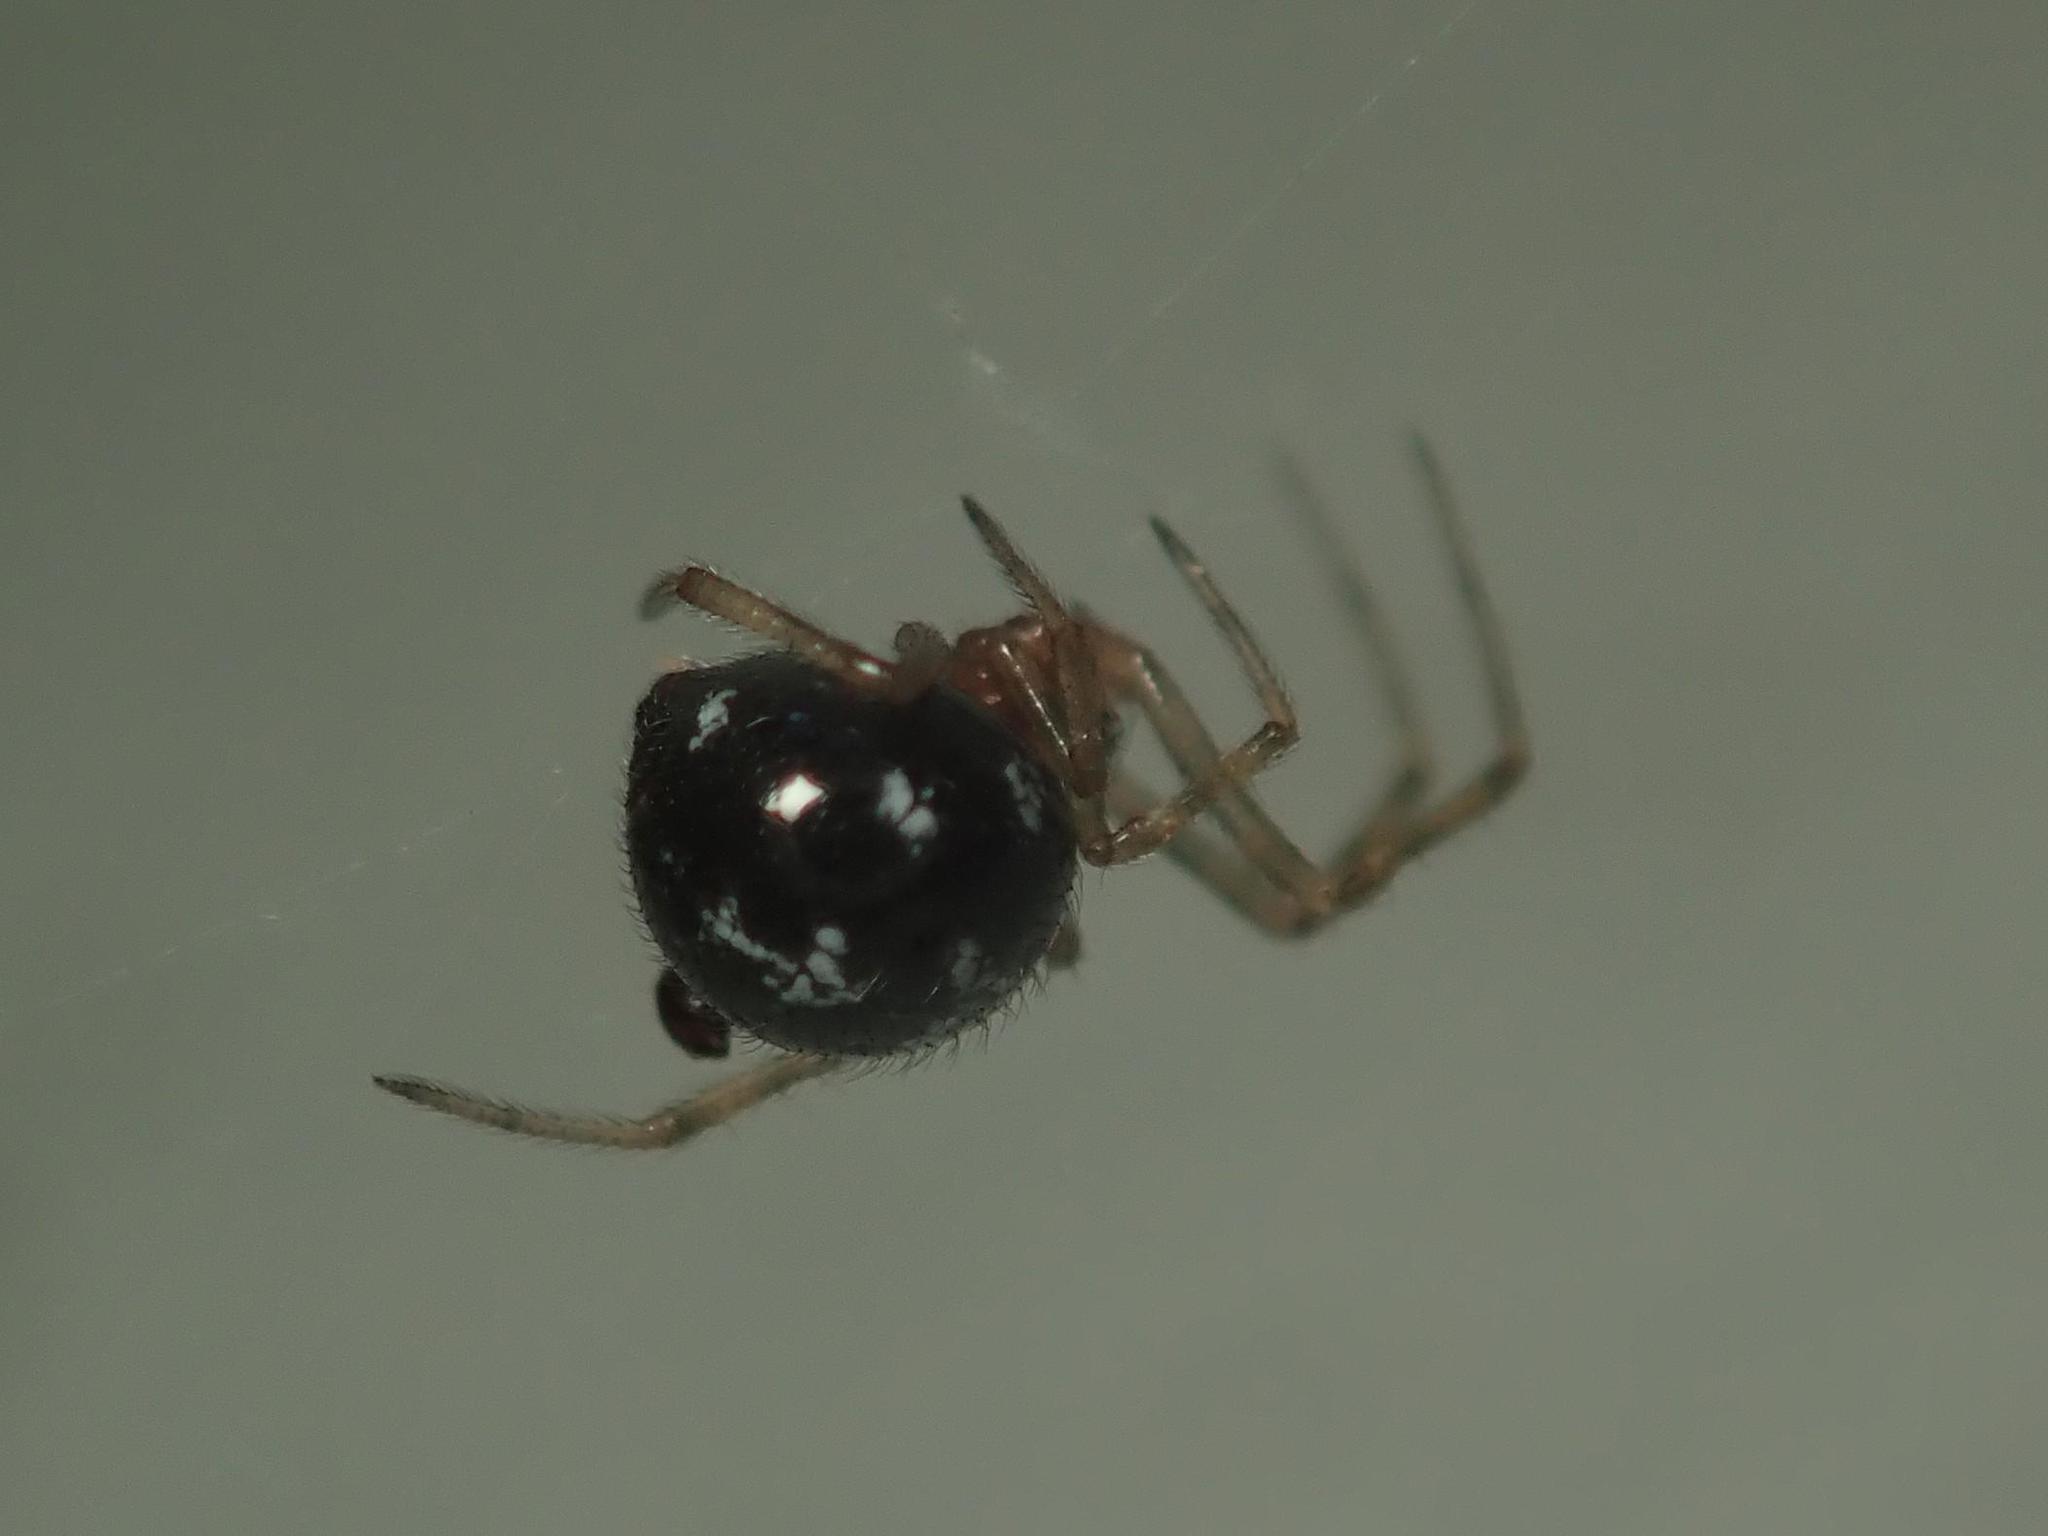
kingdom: Animalia
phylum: Arthropoda
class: Arachnida
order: Araneae
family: Theridiidae
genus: Steatoda
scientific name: Steatoda triangulosa
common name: Triangulate bud spider
